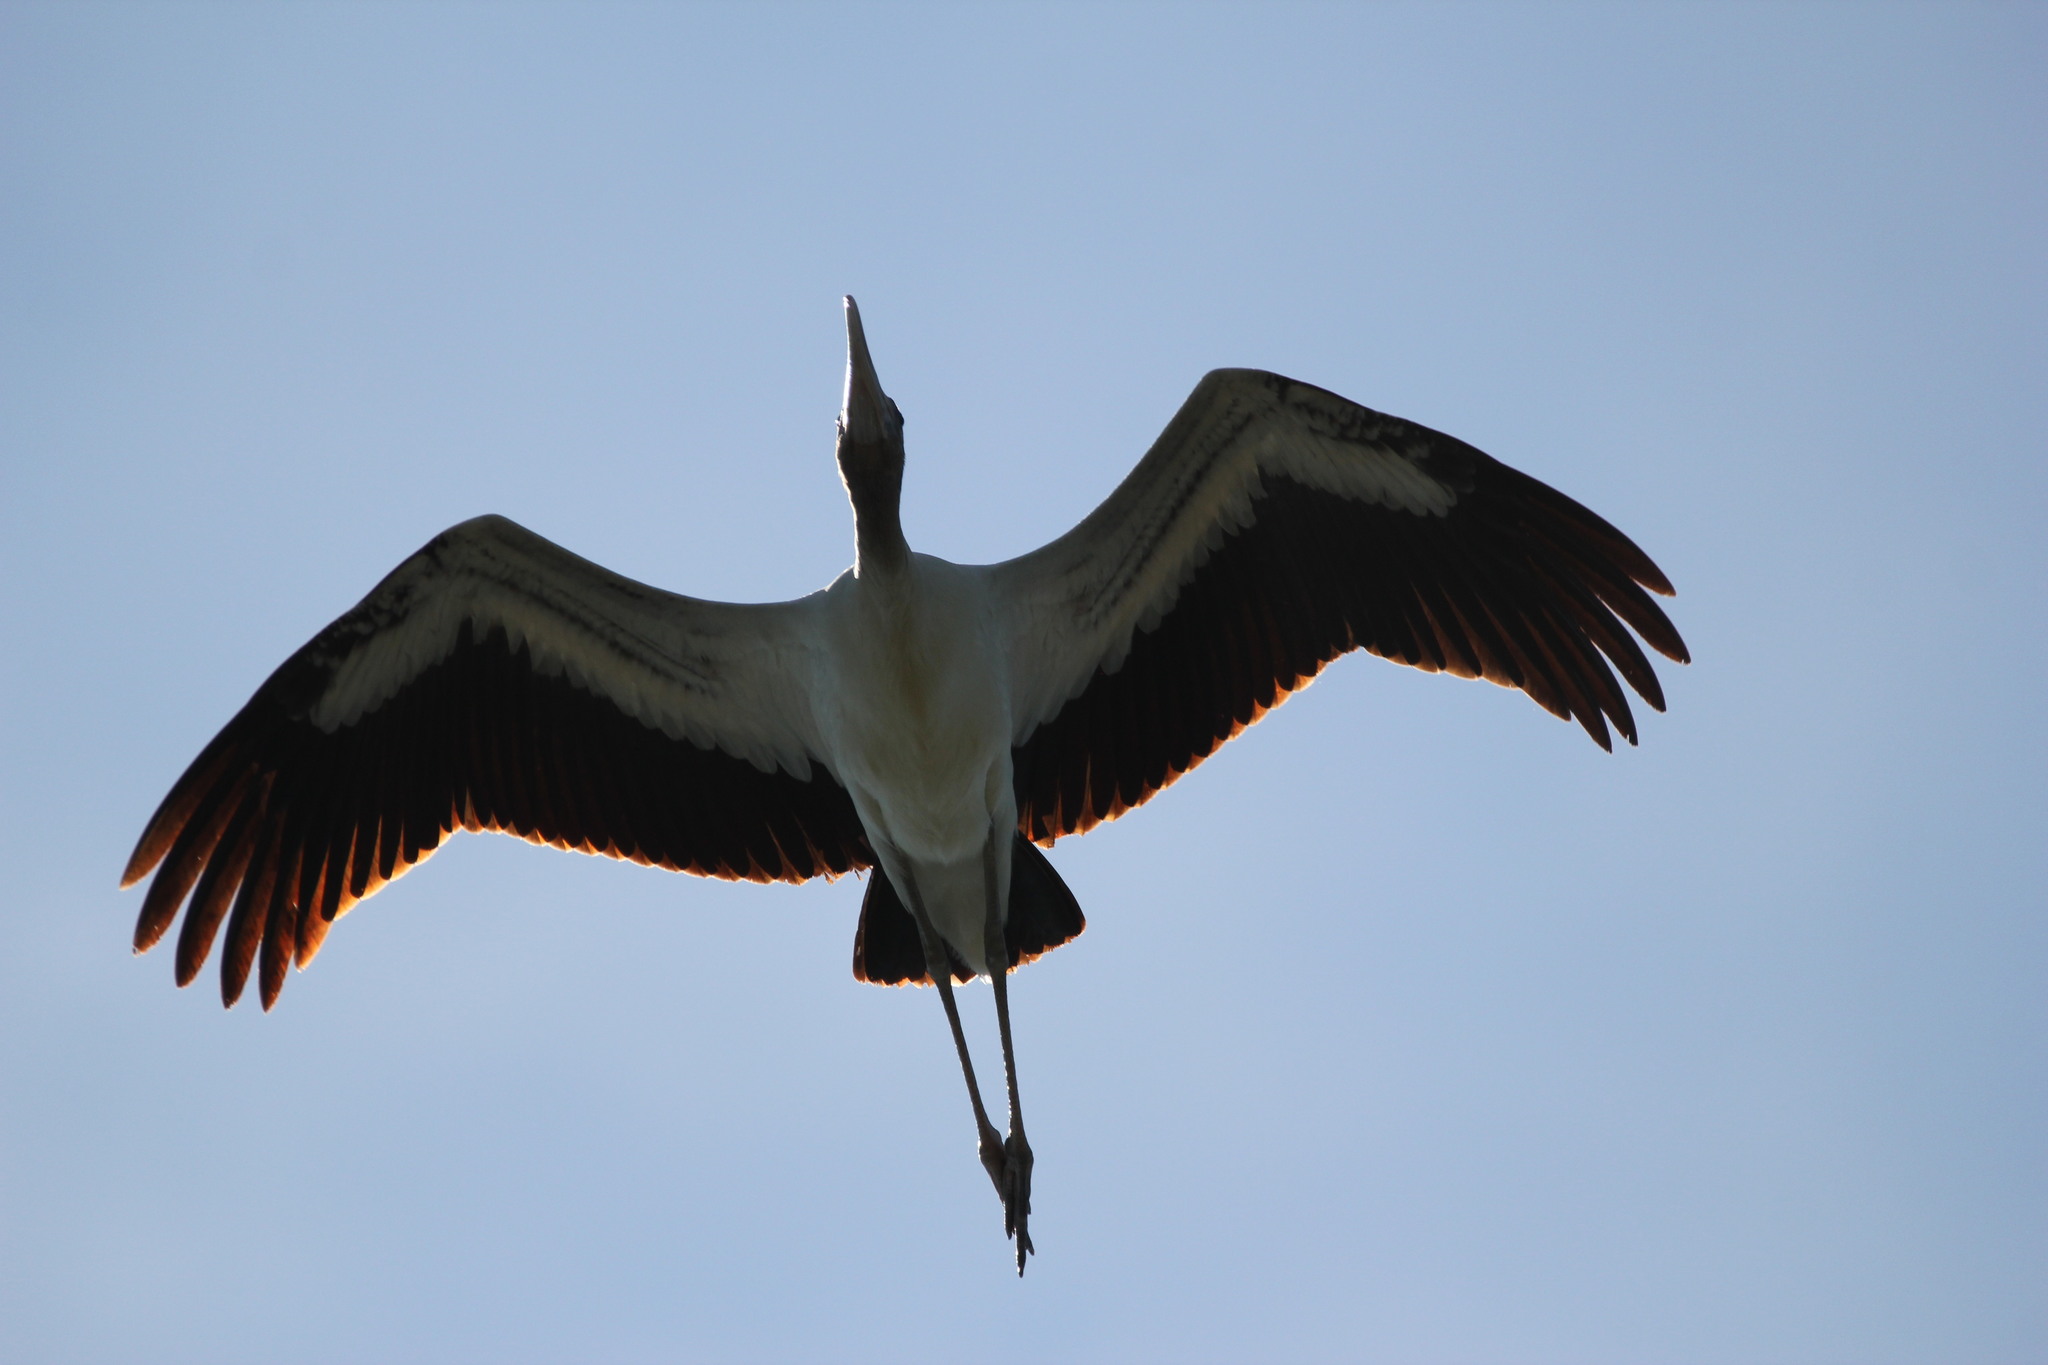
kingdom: Animalia
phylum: Chordata
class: Aves
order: Ciconiiformes
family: Ciconiidae
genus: Mycteria
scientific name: Mycteria americana
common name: Wood stork
